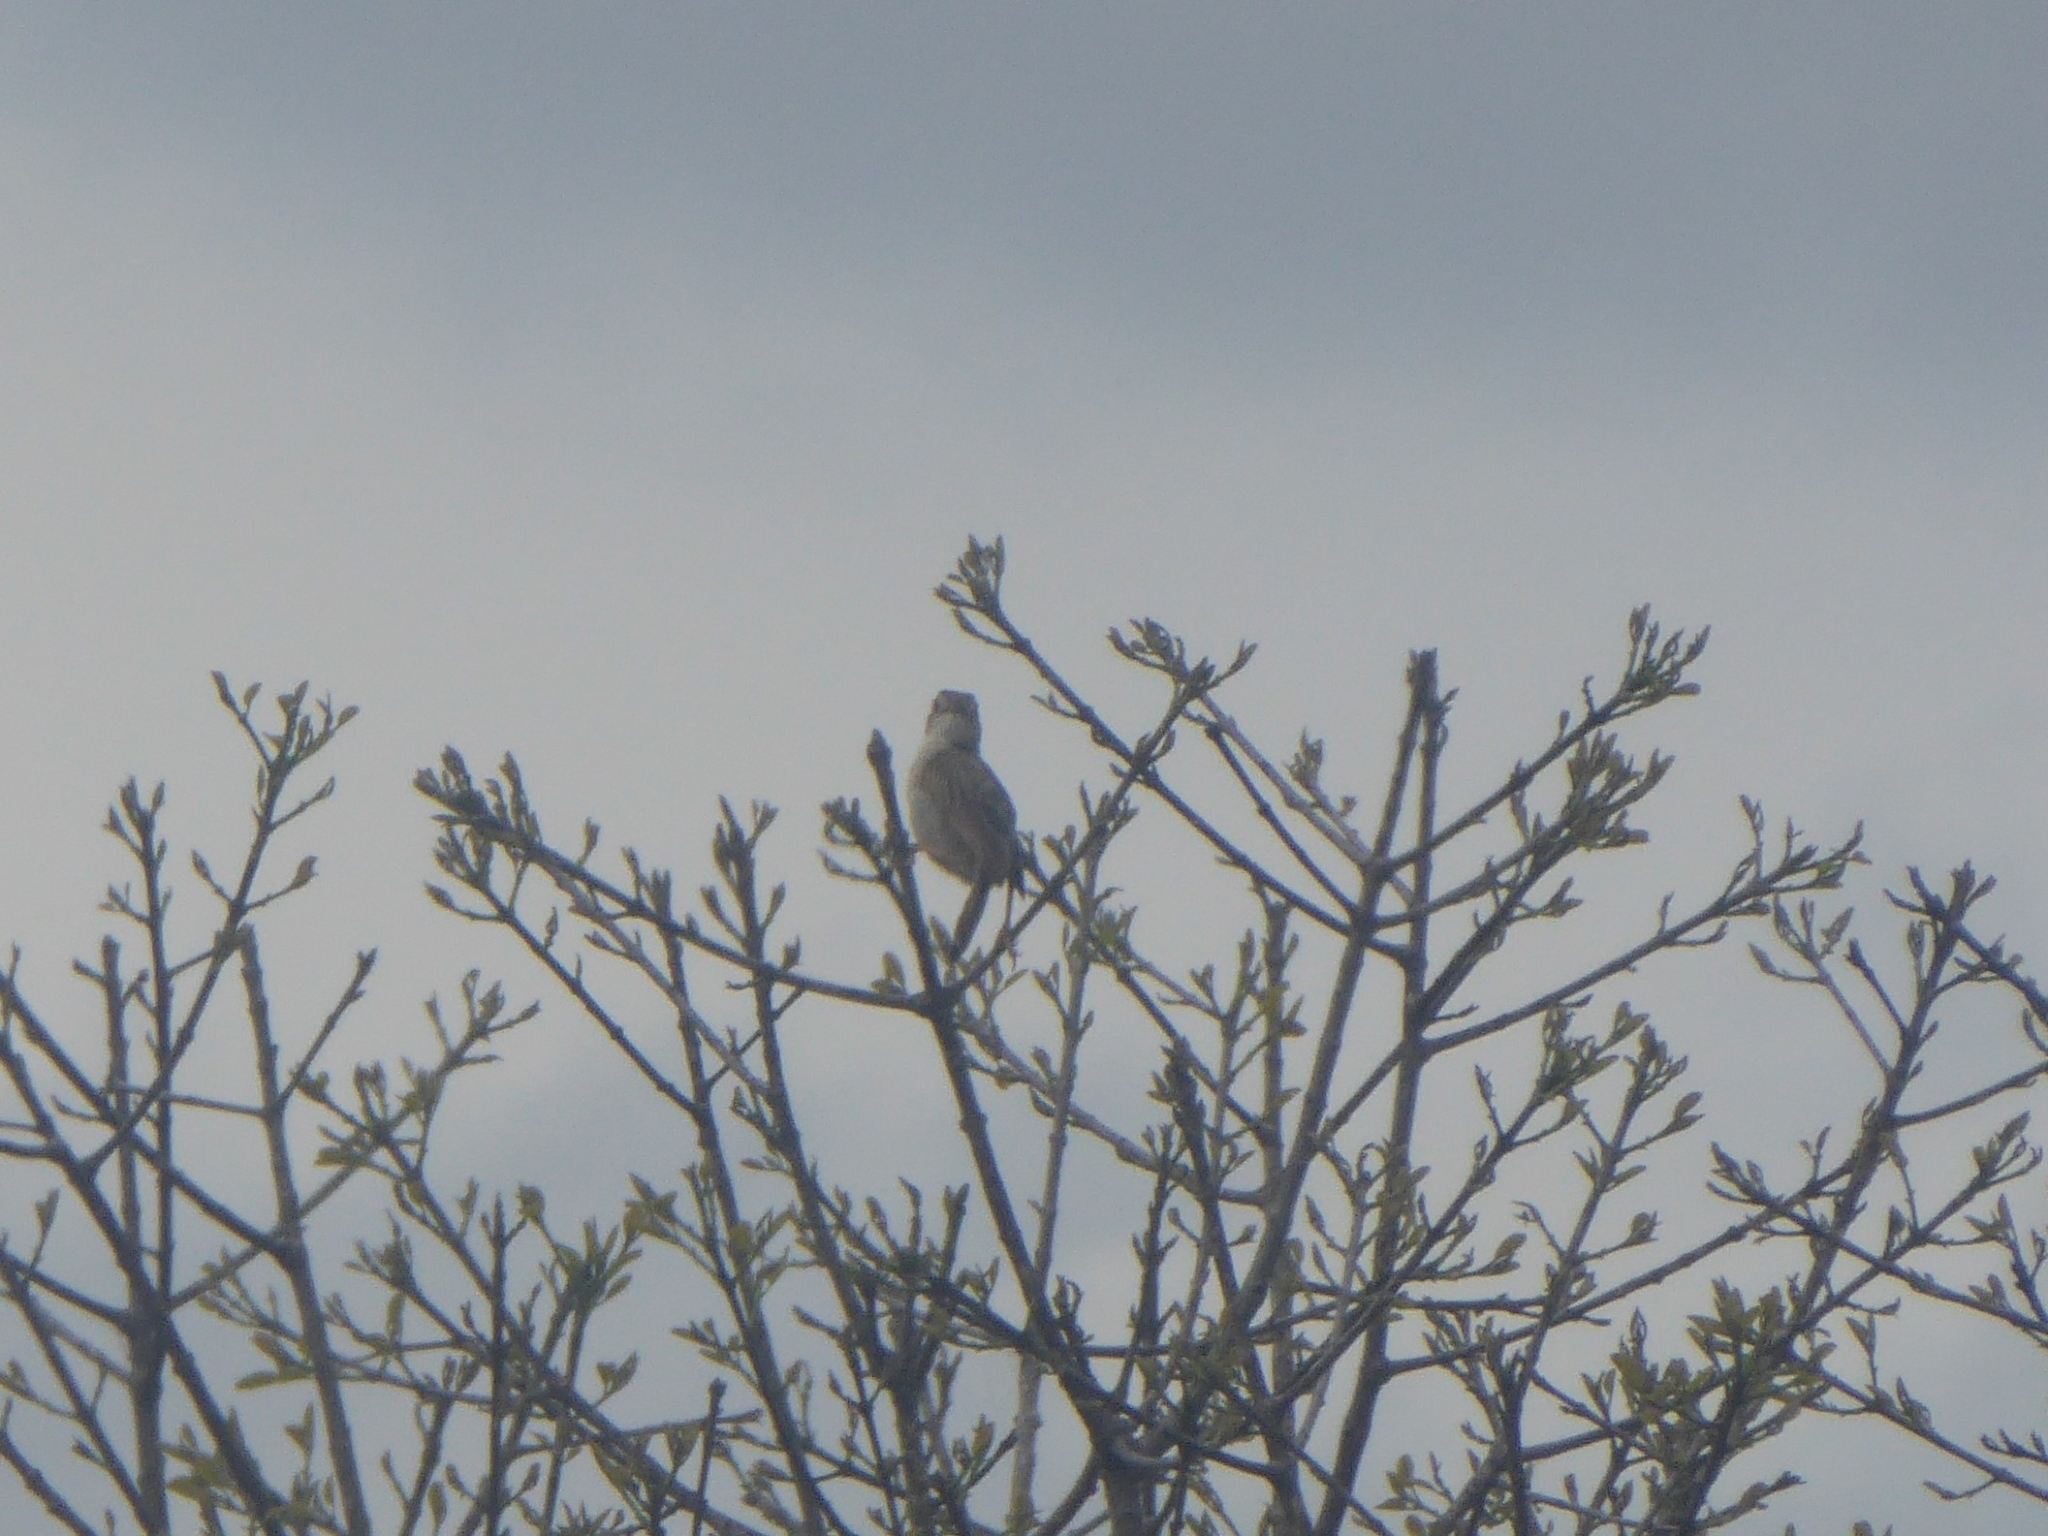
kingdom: Animalia
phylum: Chordata
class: Aves
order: Passeriformes
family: Cisticolidae
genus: Cisticola
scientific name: Cisticola chiniana
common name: Rattling cisticola
